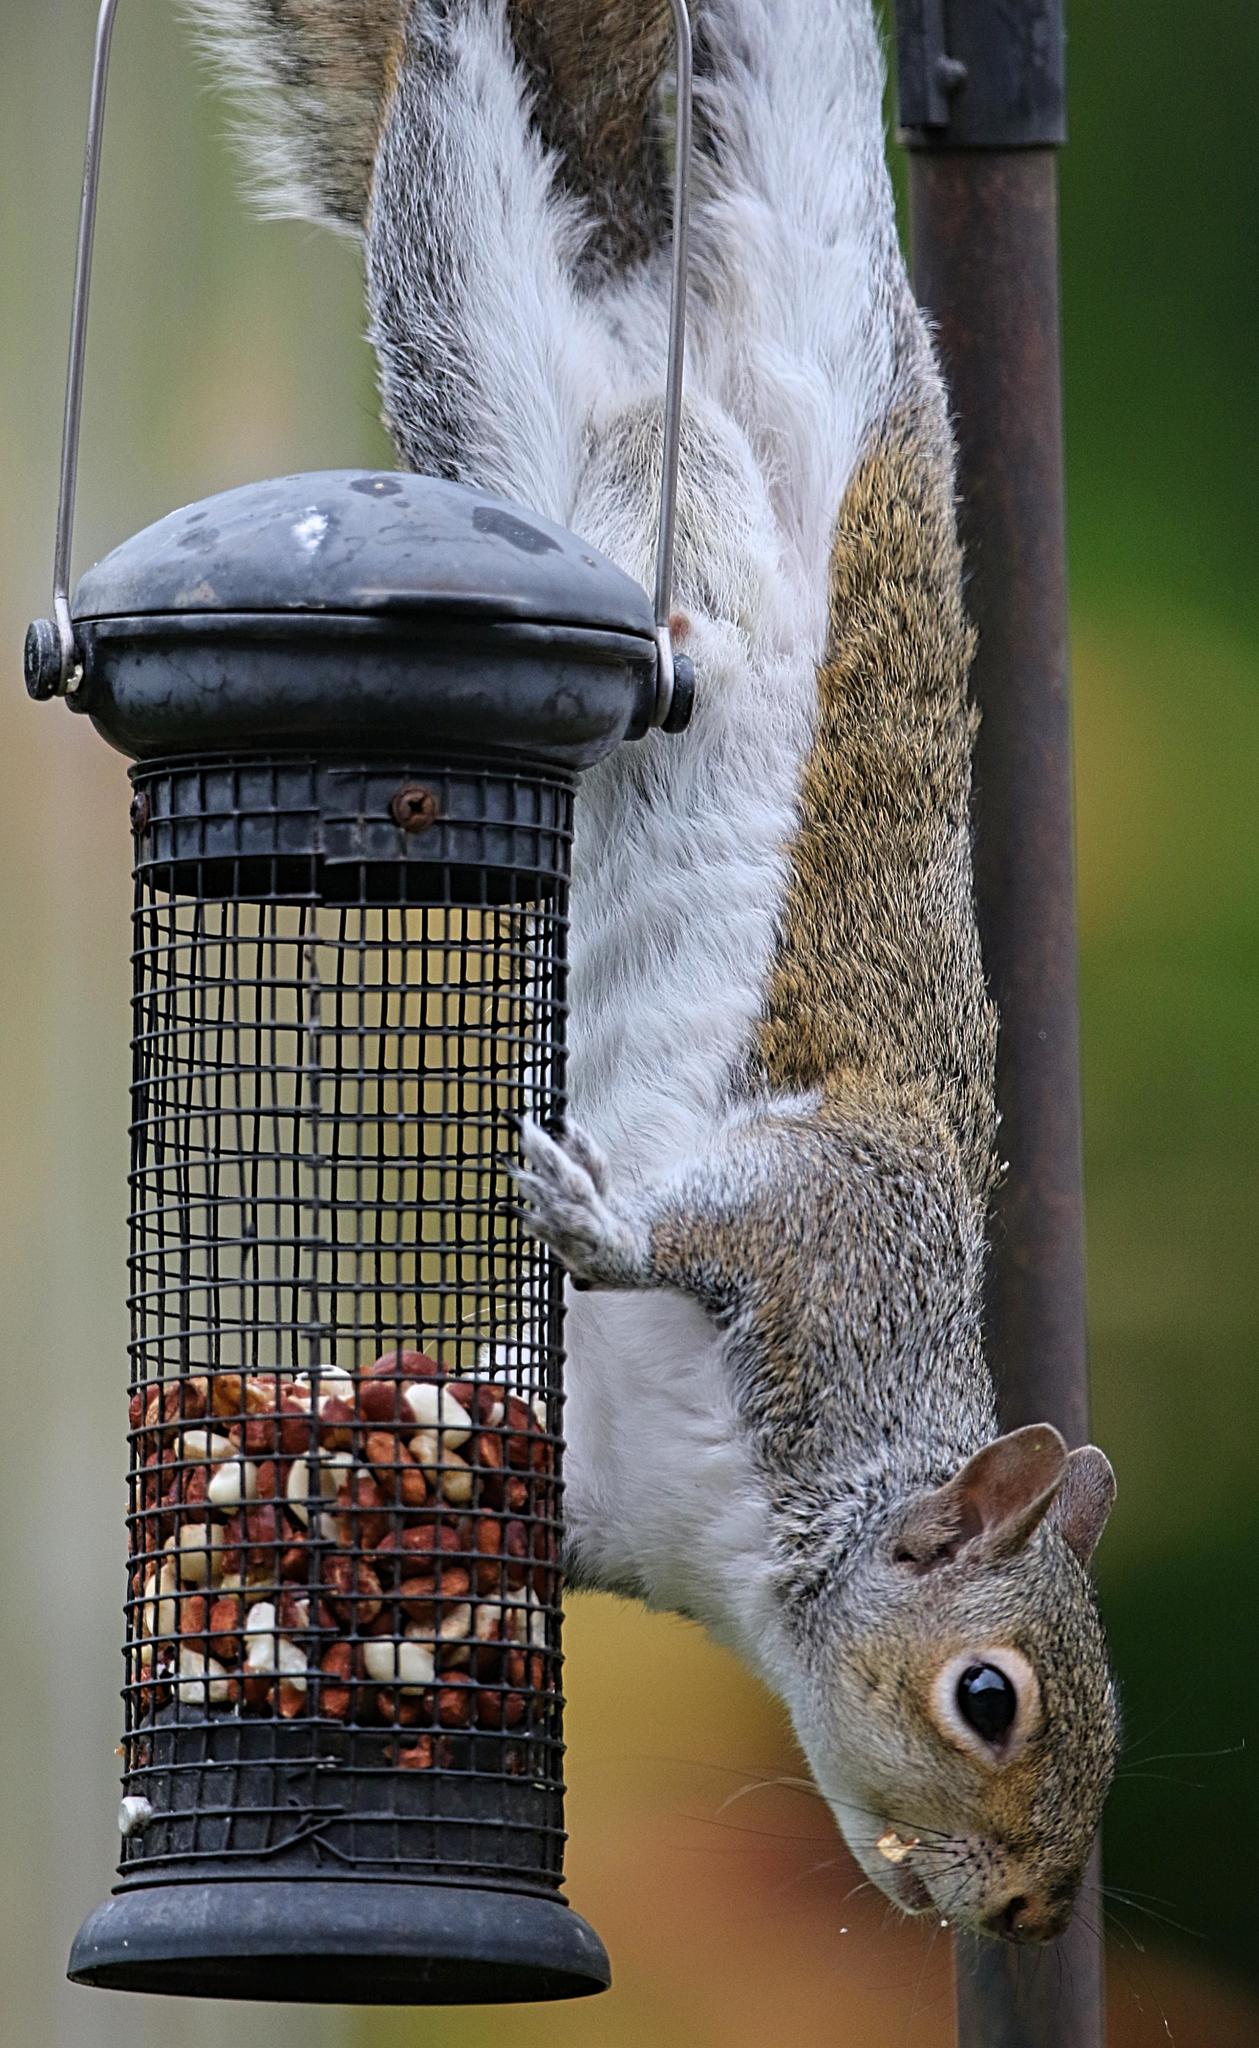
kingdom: Animalia
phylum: Chordata
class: Mammalia
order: Rodentia
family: Sciuridae
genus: Sciurus
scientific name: Sciurus carolinensis
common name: Eastern gray squirrel
